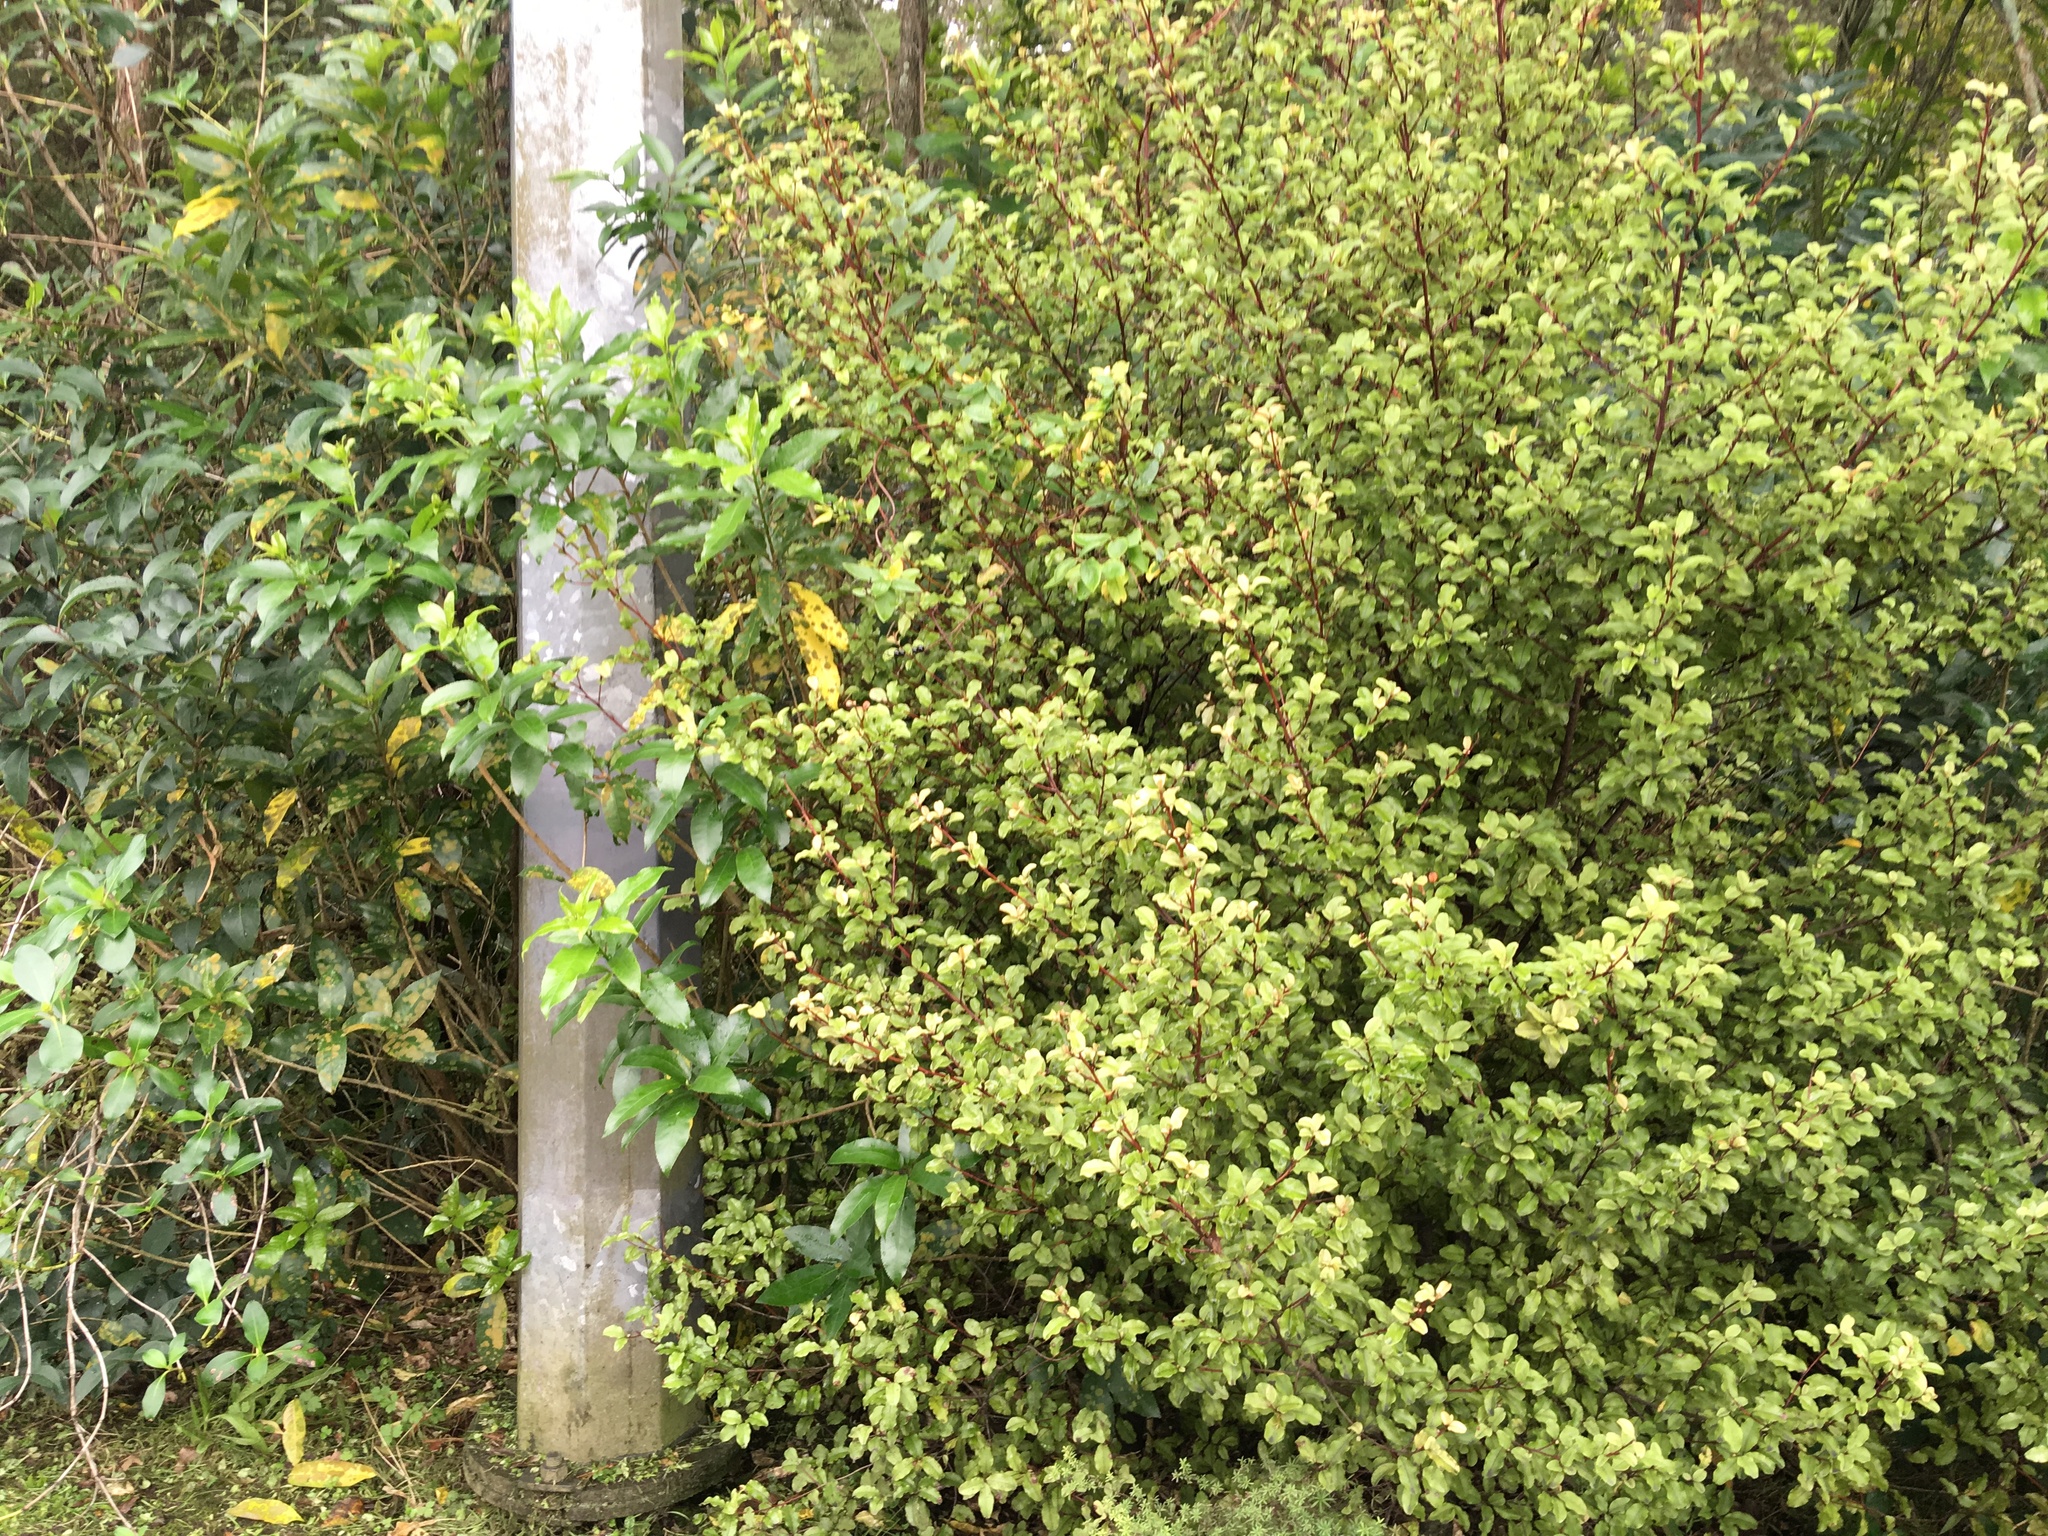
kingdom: Plantae
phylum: Tracheophyta
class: Magnoliopsida
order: Malpighiales
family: Violaceae
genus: Melicytus
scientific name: Melicytus ramiflorus
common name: Mahoe
